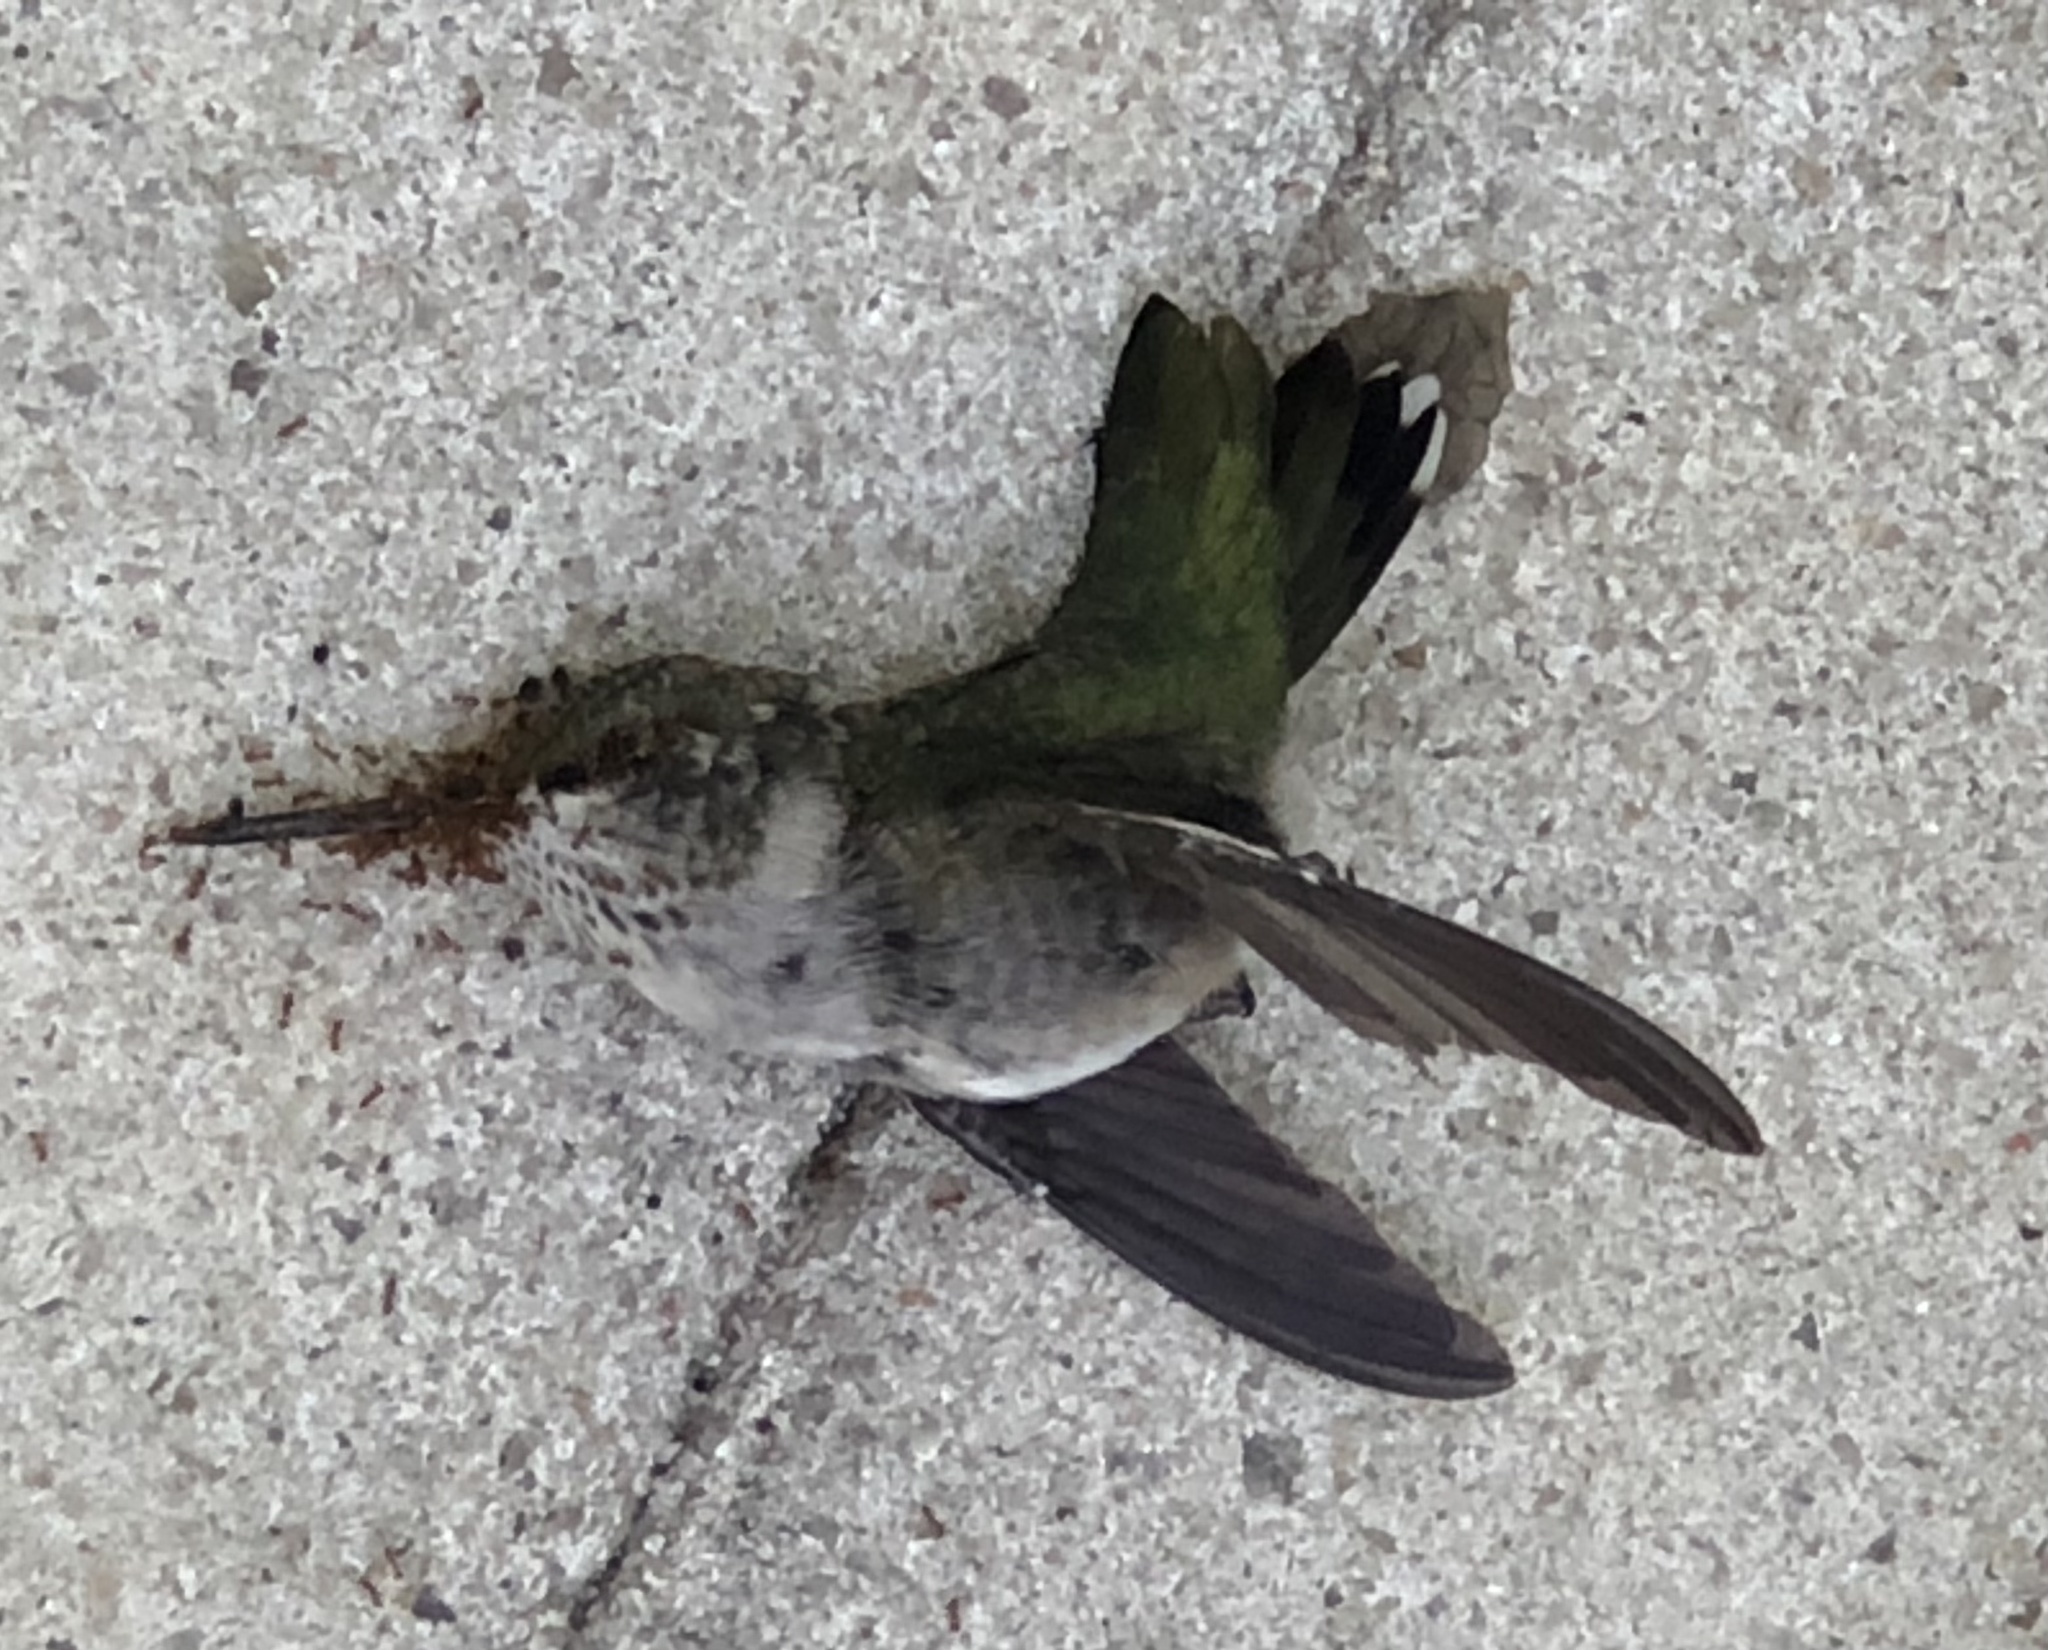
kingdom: Animalia
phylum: Chordata
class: Aves
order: Apodiformes
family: Trochilidae
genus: Archilochus
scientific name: Archilochus colubris
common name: Ruby-throated hummingbird
